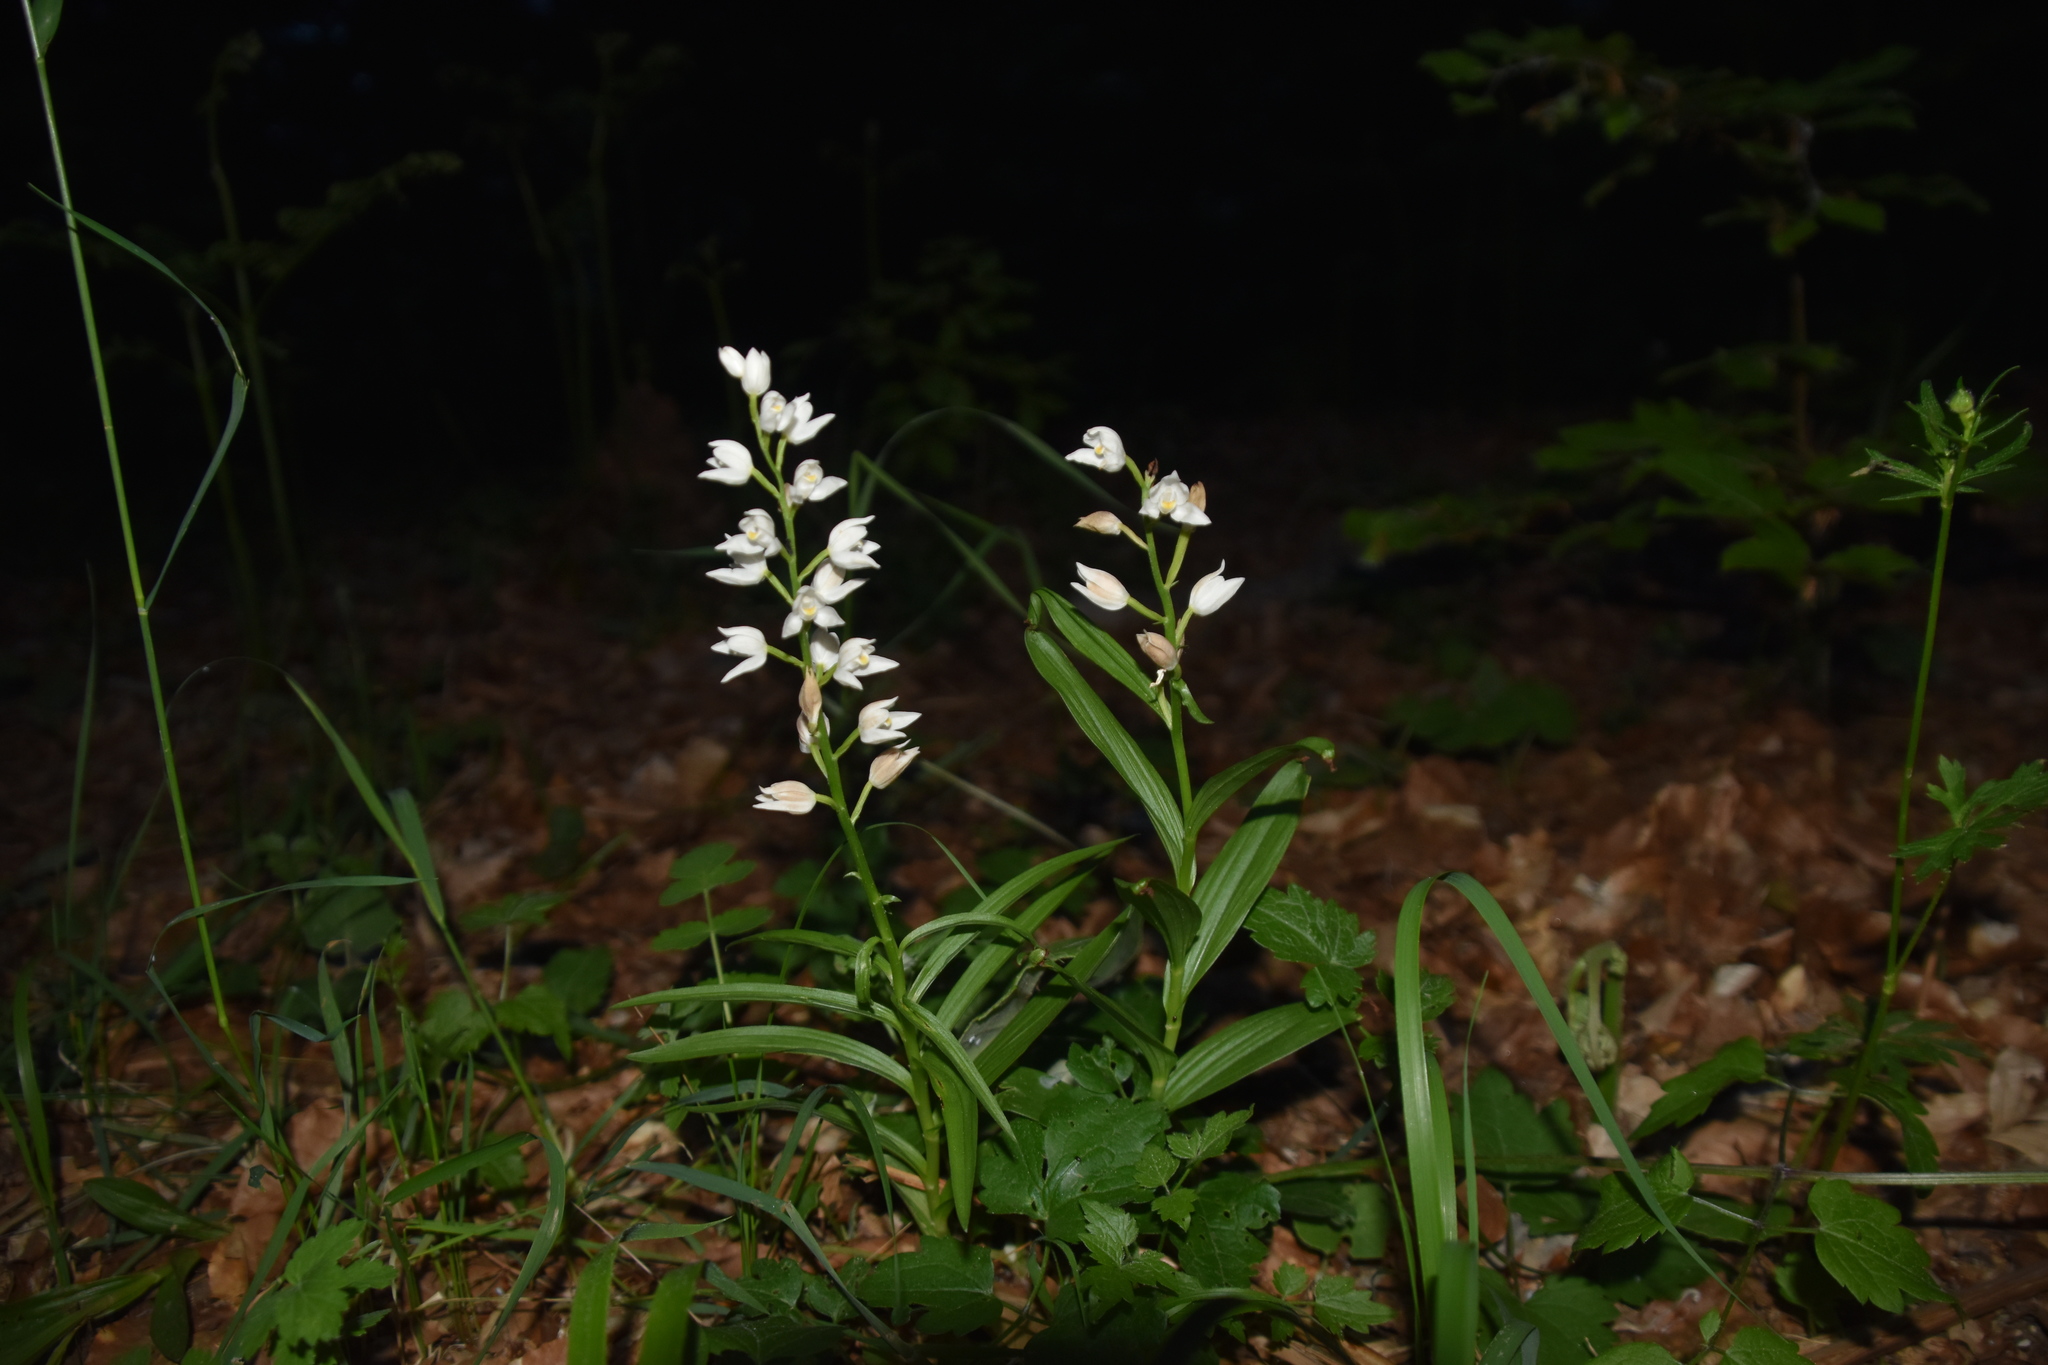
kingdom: Plantae
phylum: Tracheophyta
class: Liliopsida
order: Asparagales
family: Orchidaceae
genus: Cephalanthera
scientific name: Cephalanthera longifolia
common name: Narrow-leaved helleborine
